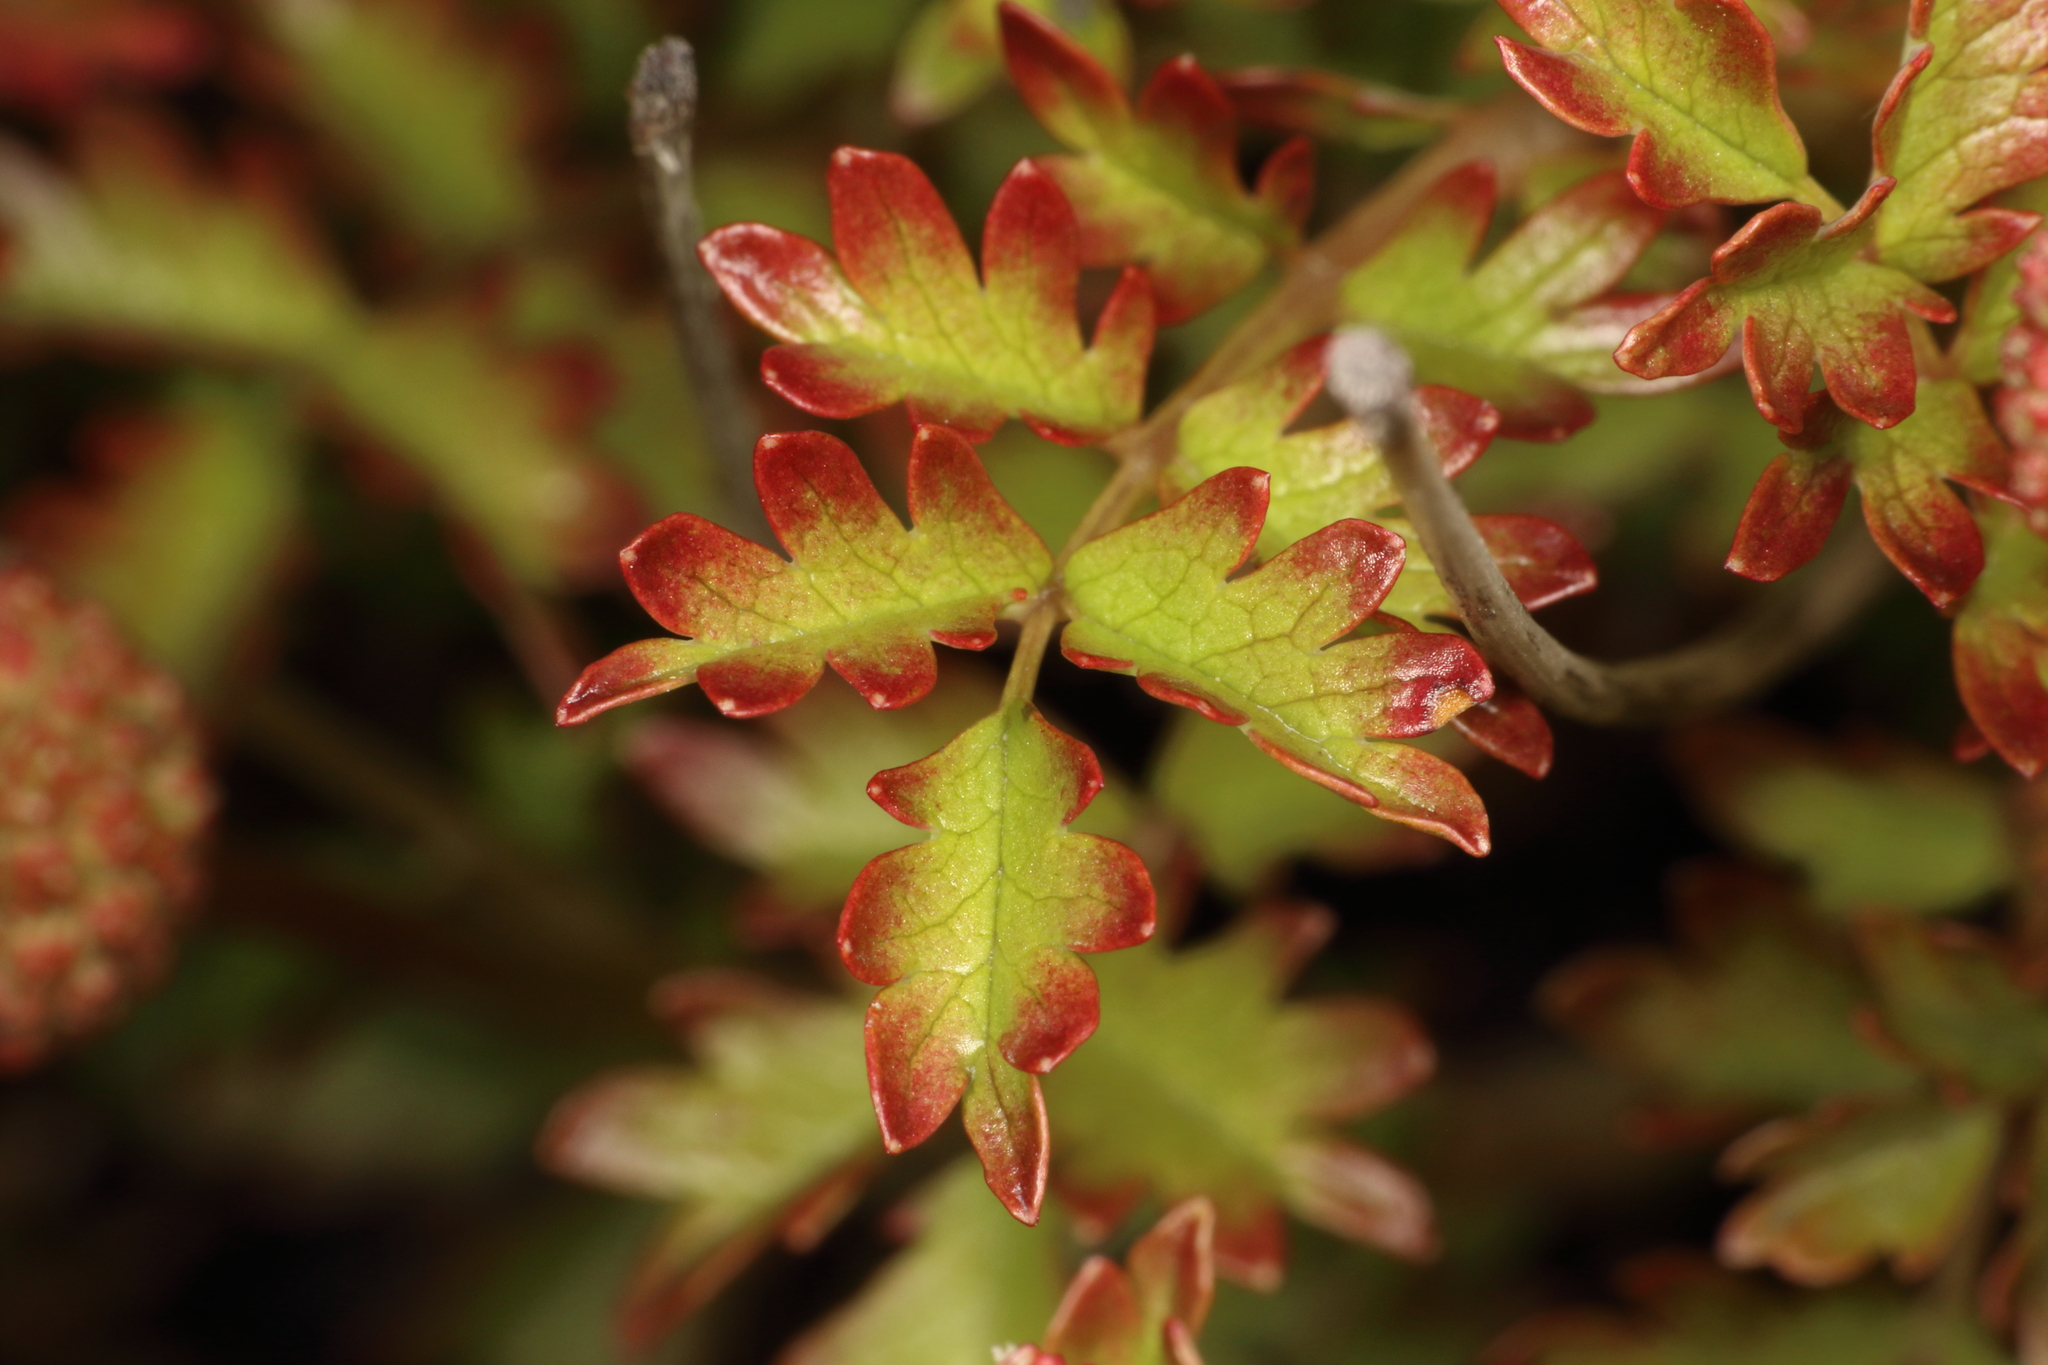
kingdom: Plantae
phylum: Tracheophyta
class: Magnoliopsida
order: Rosales
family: Rosaceae
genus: Acaena
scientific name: Acaena glabra
